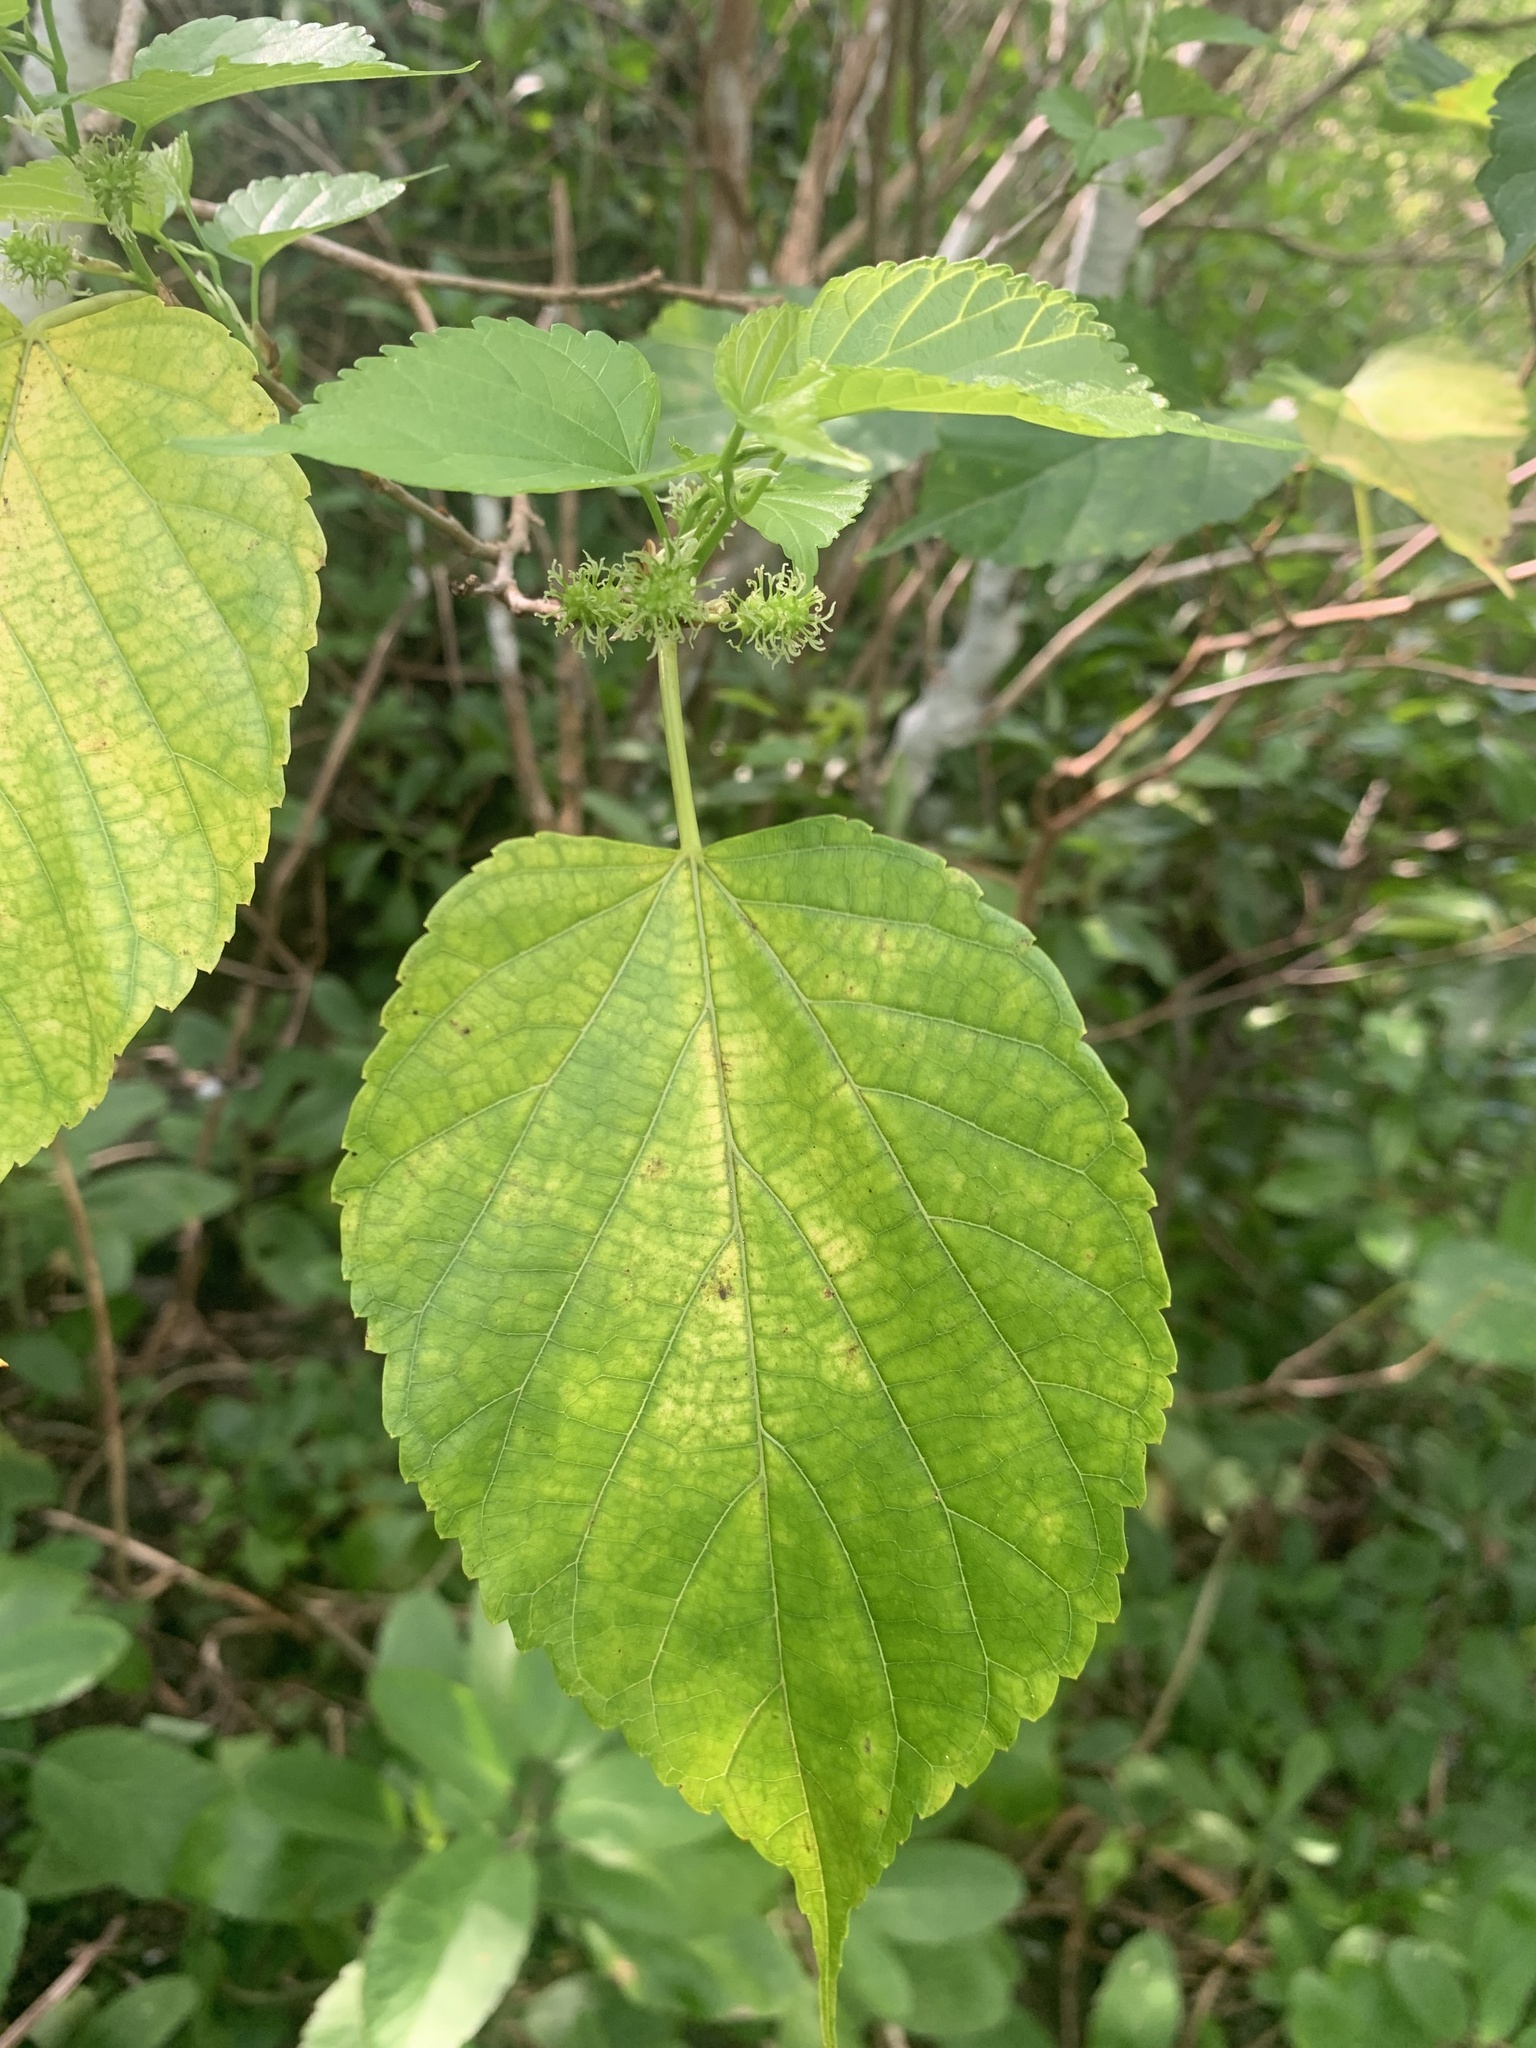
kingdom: Plantae
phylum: Tracheophyta
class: Magnoliopsida
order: Rosales
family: Moraceae
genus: Morus
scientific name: Morus indica
